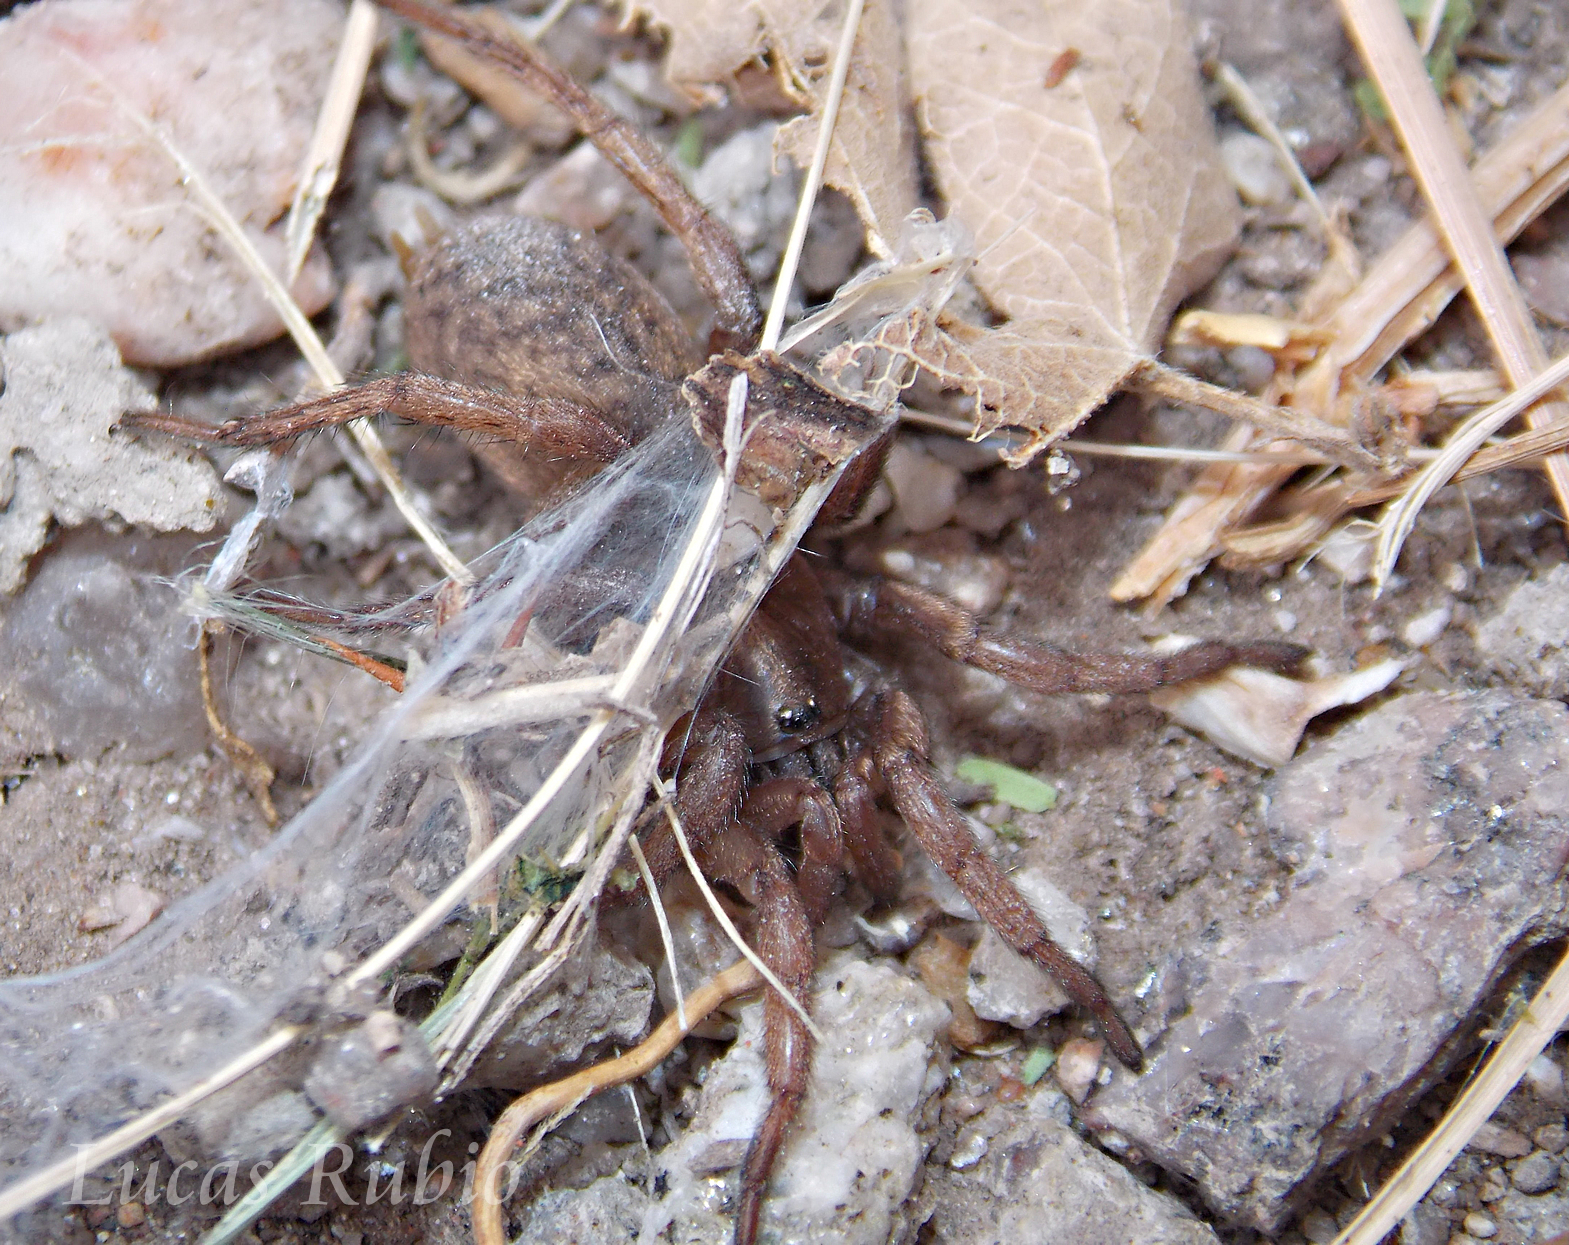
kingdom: Animalia
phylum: Arthropoda
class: Arachnida
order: Araneae
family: Pycnothelidae
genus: Acanthogonatus
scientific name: Acanthogonatus centralis
